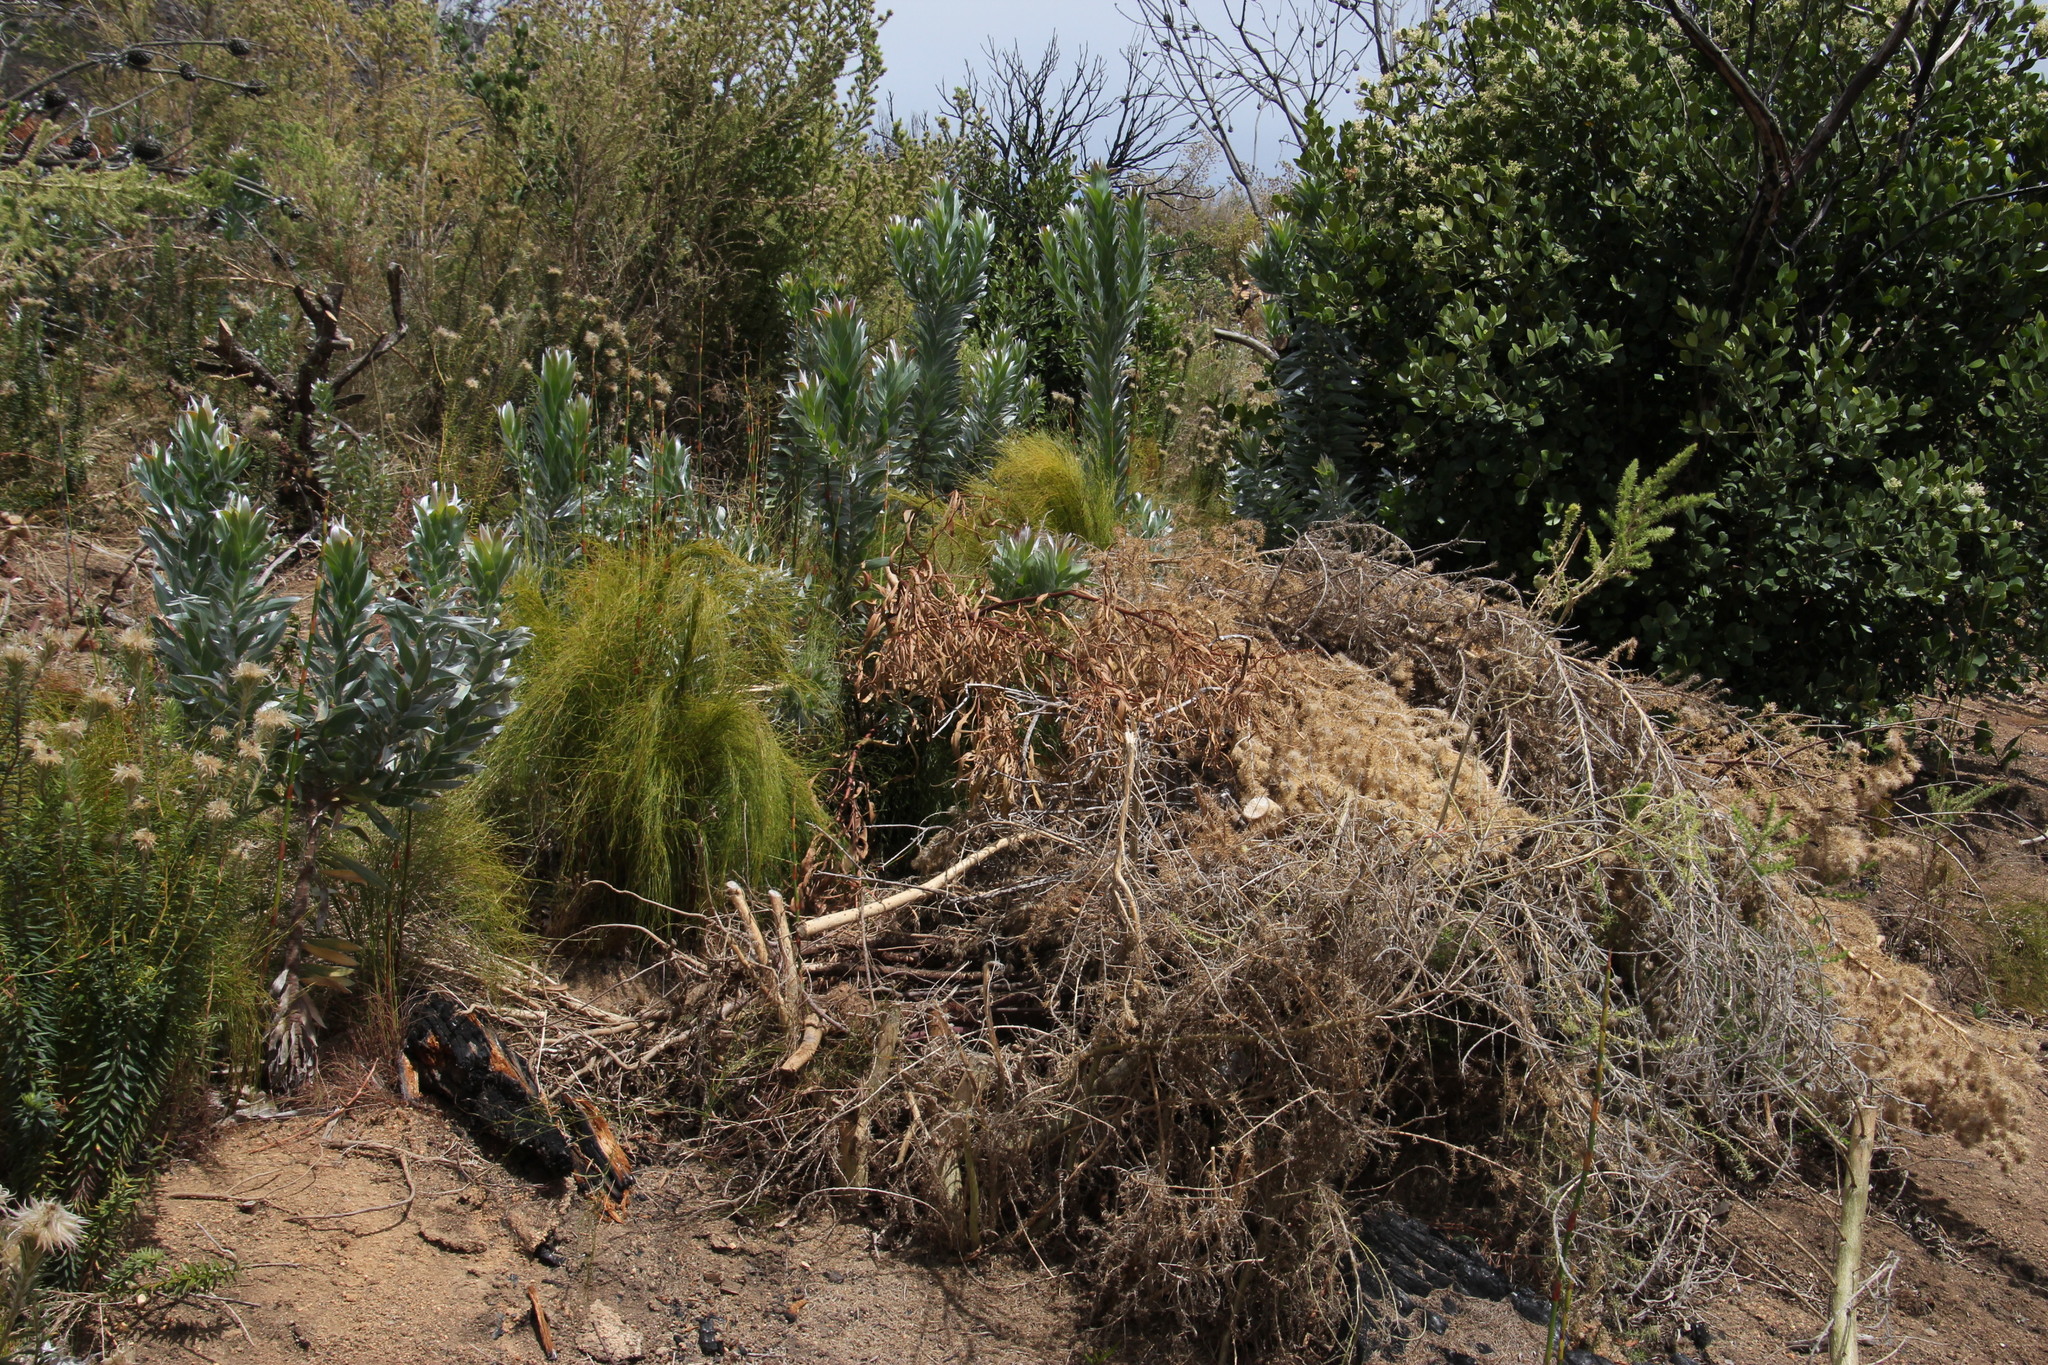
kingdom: Plantae
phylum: Tracheophyta
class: Magnoliopsida
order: Fabales
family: Fabaceae
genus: Aspalathus
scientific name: Aspalathus chenopoda
